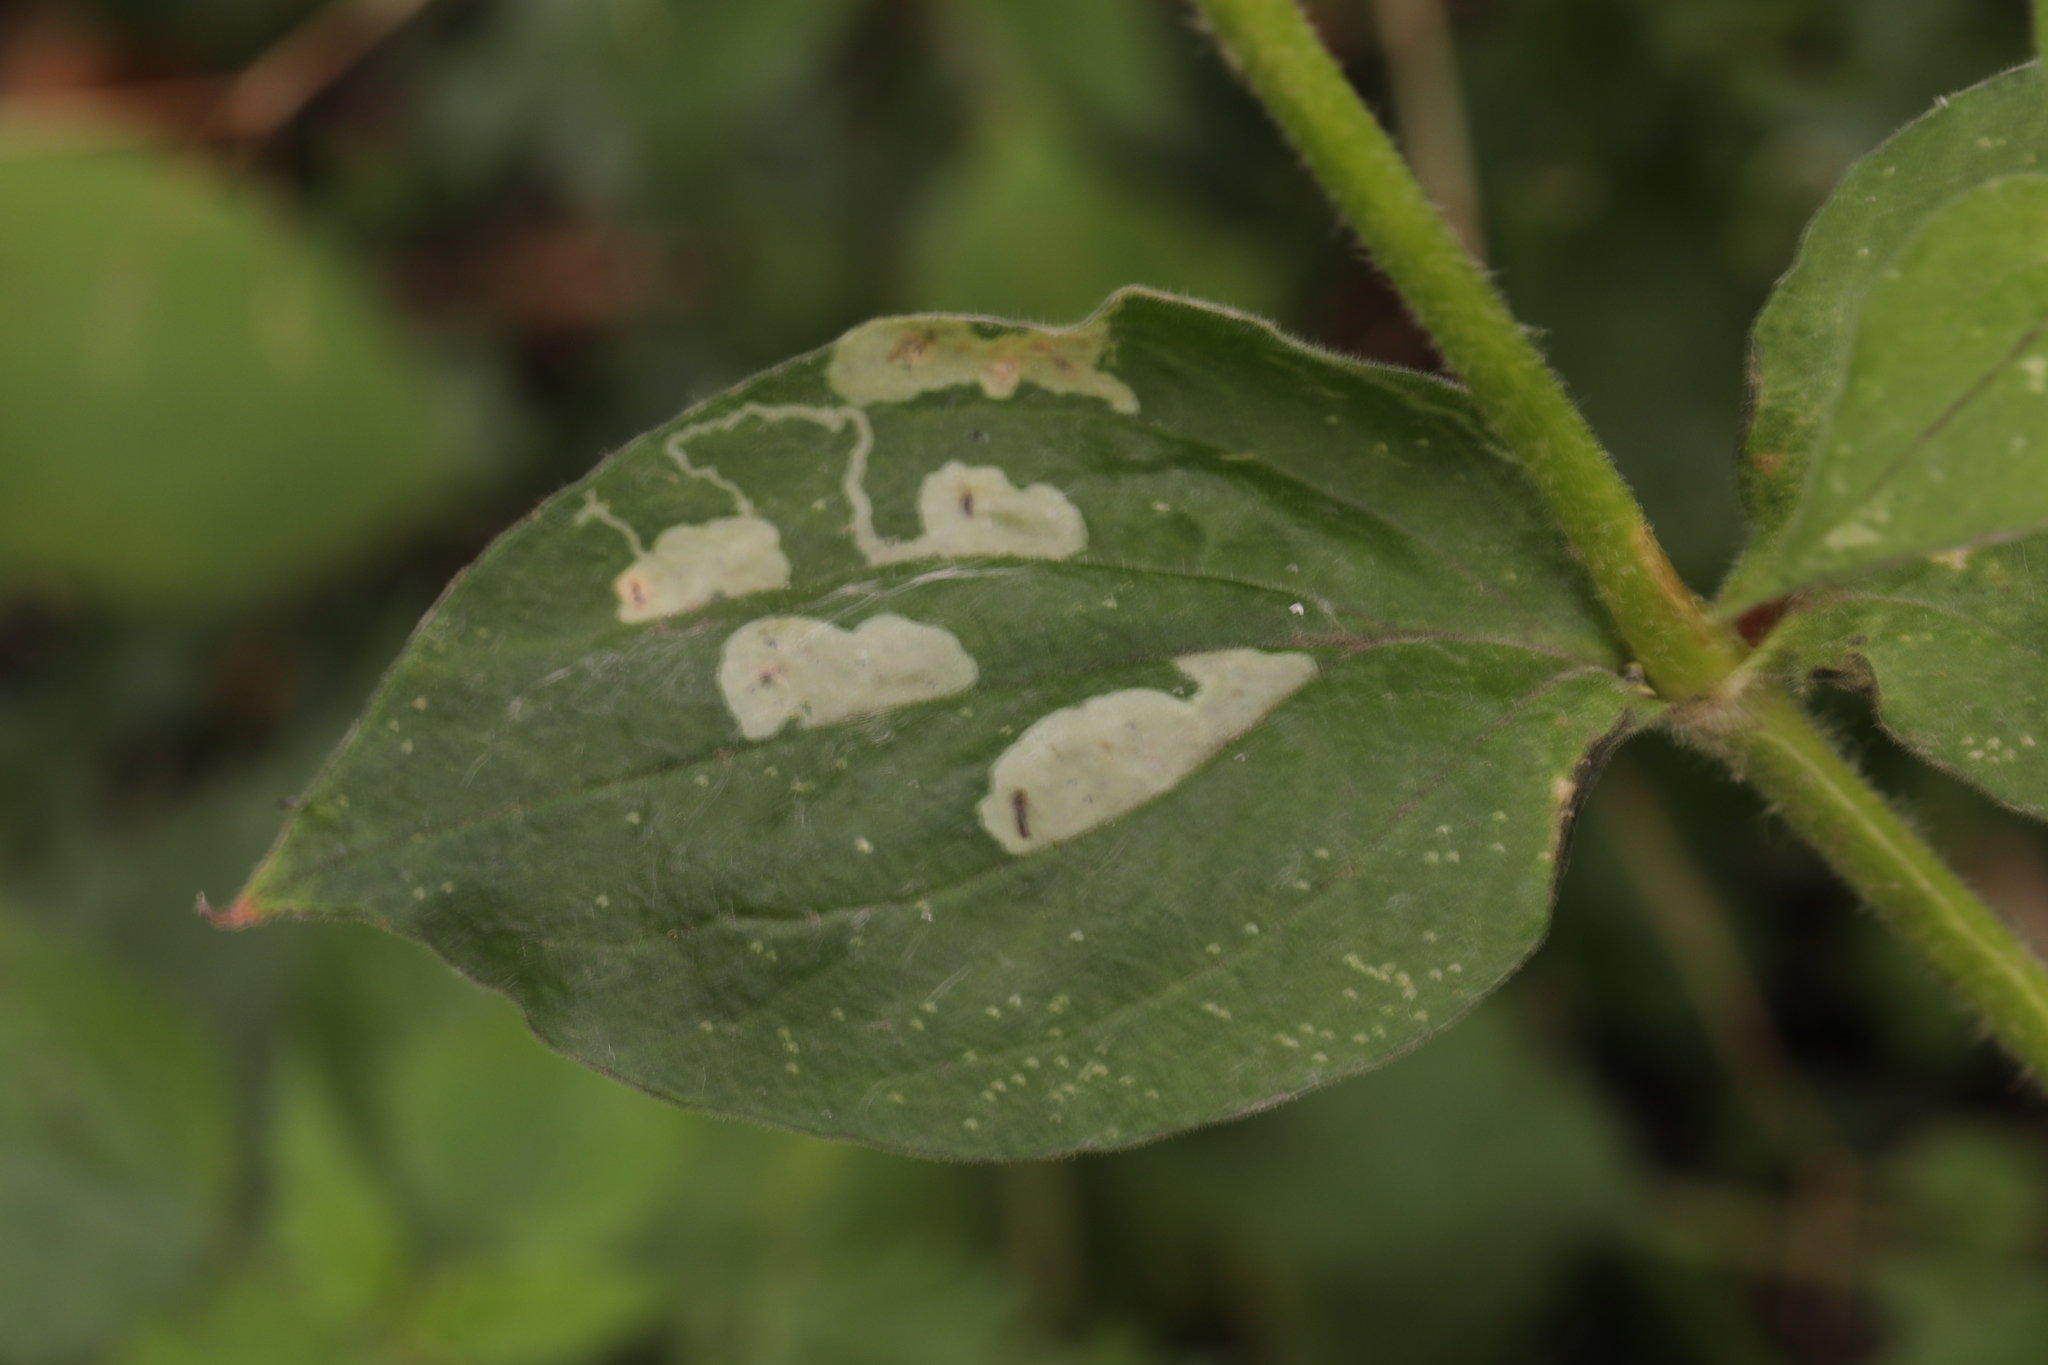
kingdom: Animalia
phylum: Arthropoda
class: Insecta
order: Diptera
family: Agromyzidae
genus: Amauromyza
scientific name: Amauromyza flavifrons
